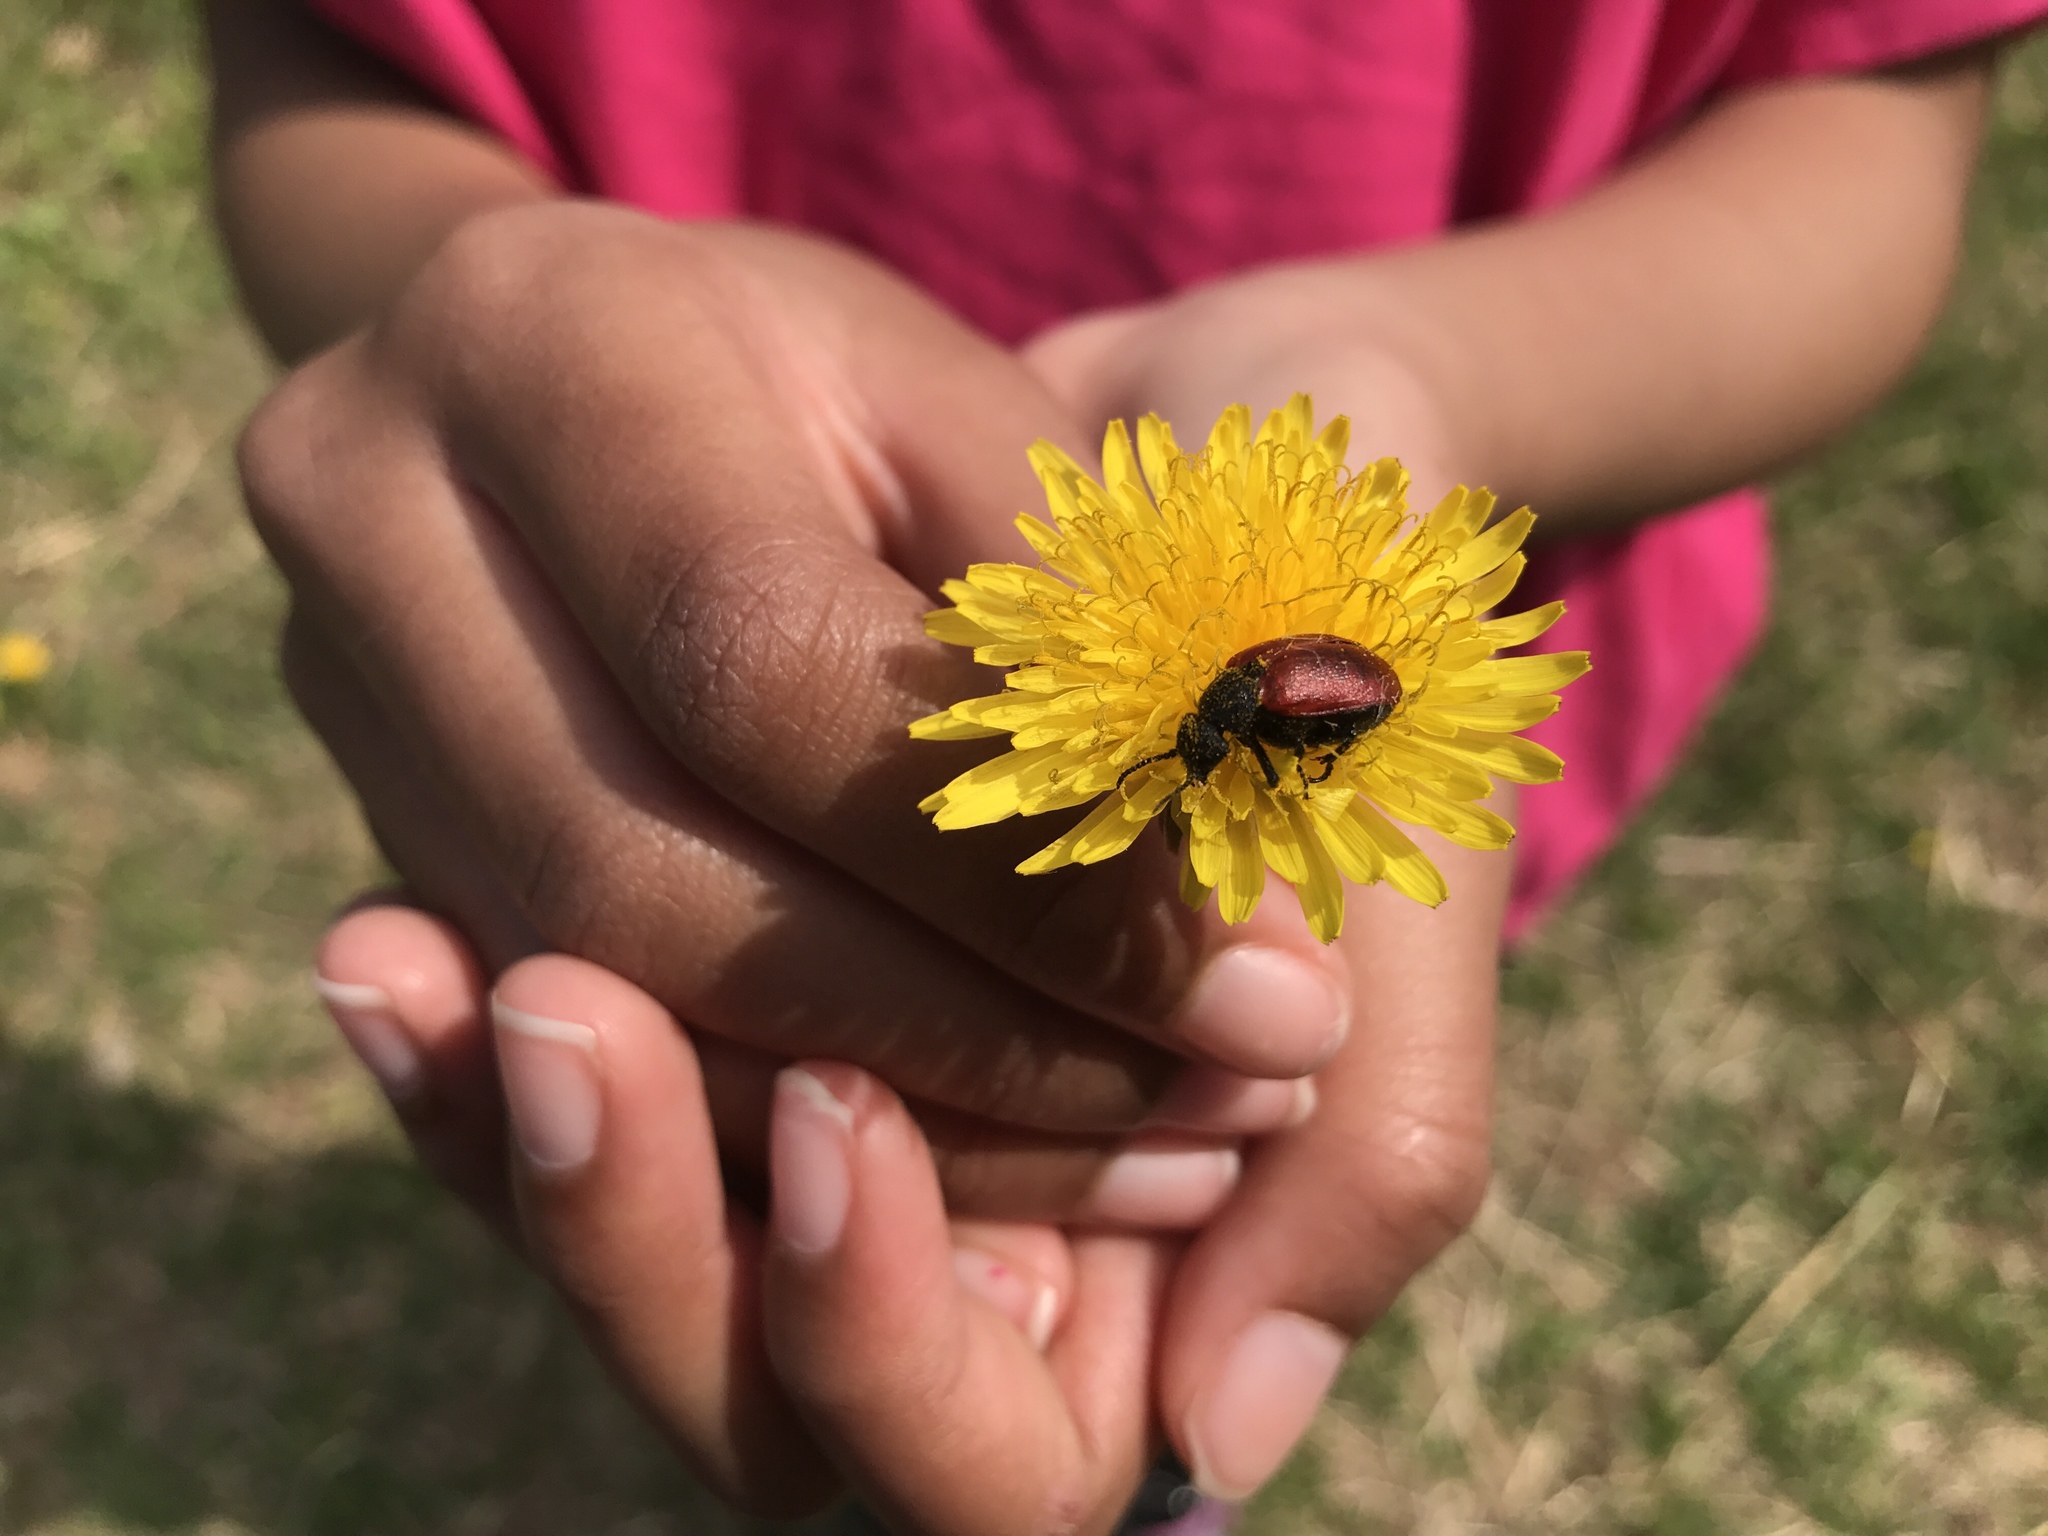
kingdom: Animalia
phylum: Arthropoda
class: Insecta
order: Coleoptera
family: Meloidae
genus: Tricrania
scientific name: Tricrania sanguinipennis
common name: Blood-winged blister beetle
